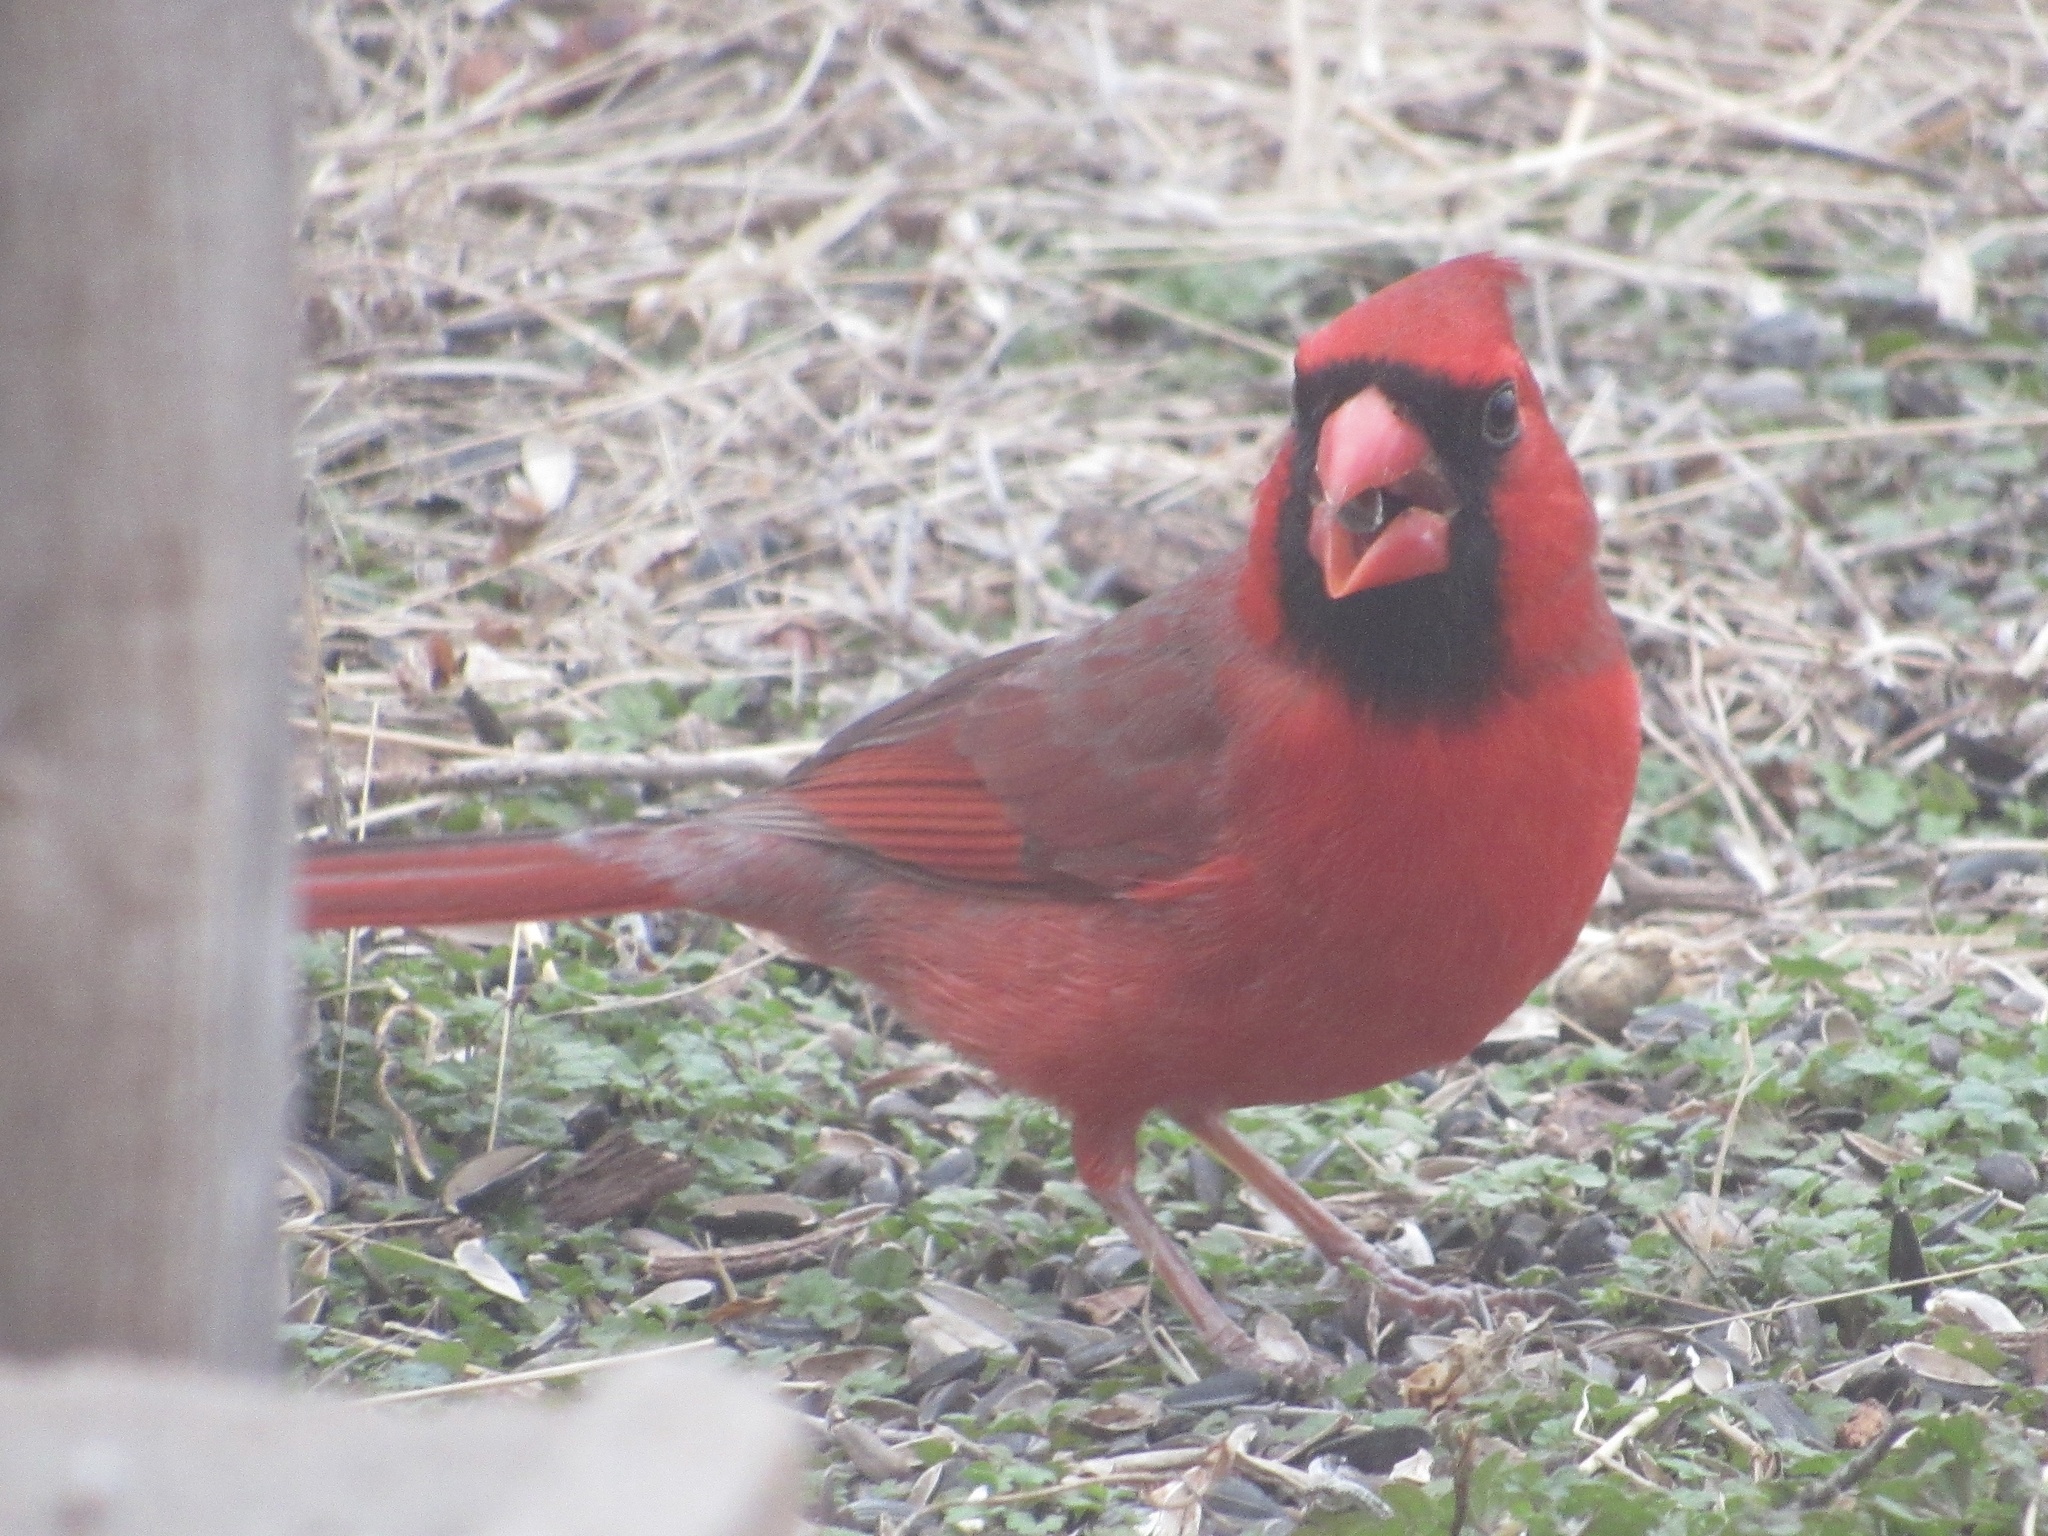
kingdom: Animalia
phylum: Chordata
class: Aves
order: Passeriformes
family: Cardinalidae
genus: Cardinalis
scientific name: Cardinalis cardinalis
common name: Northern cardinal
